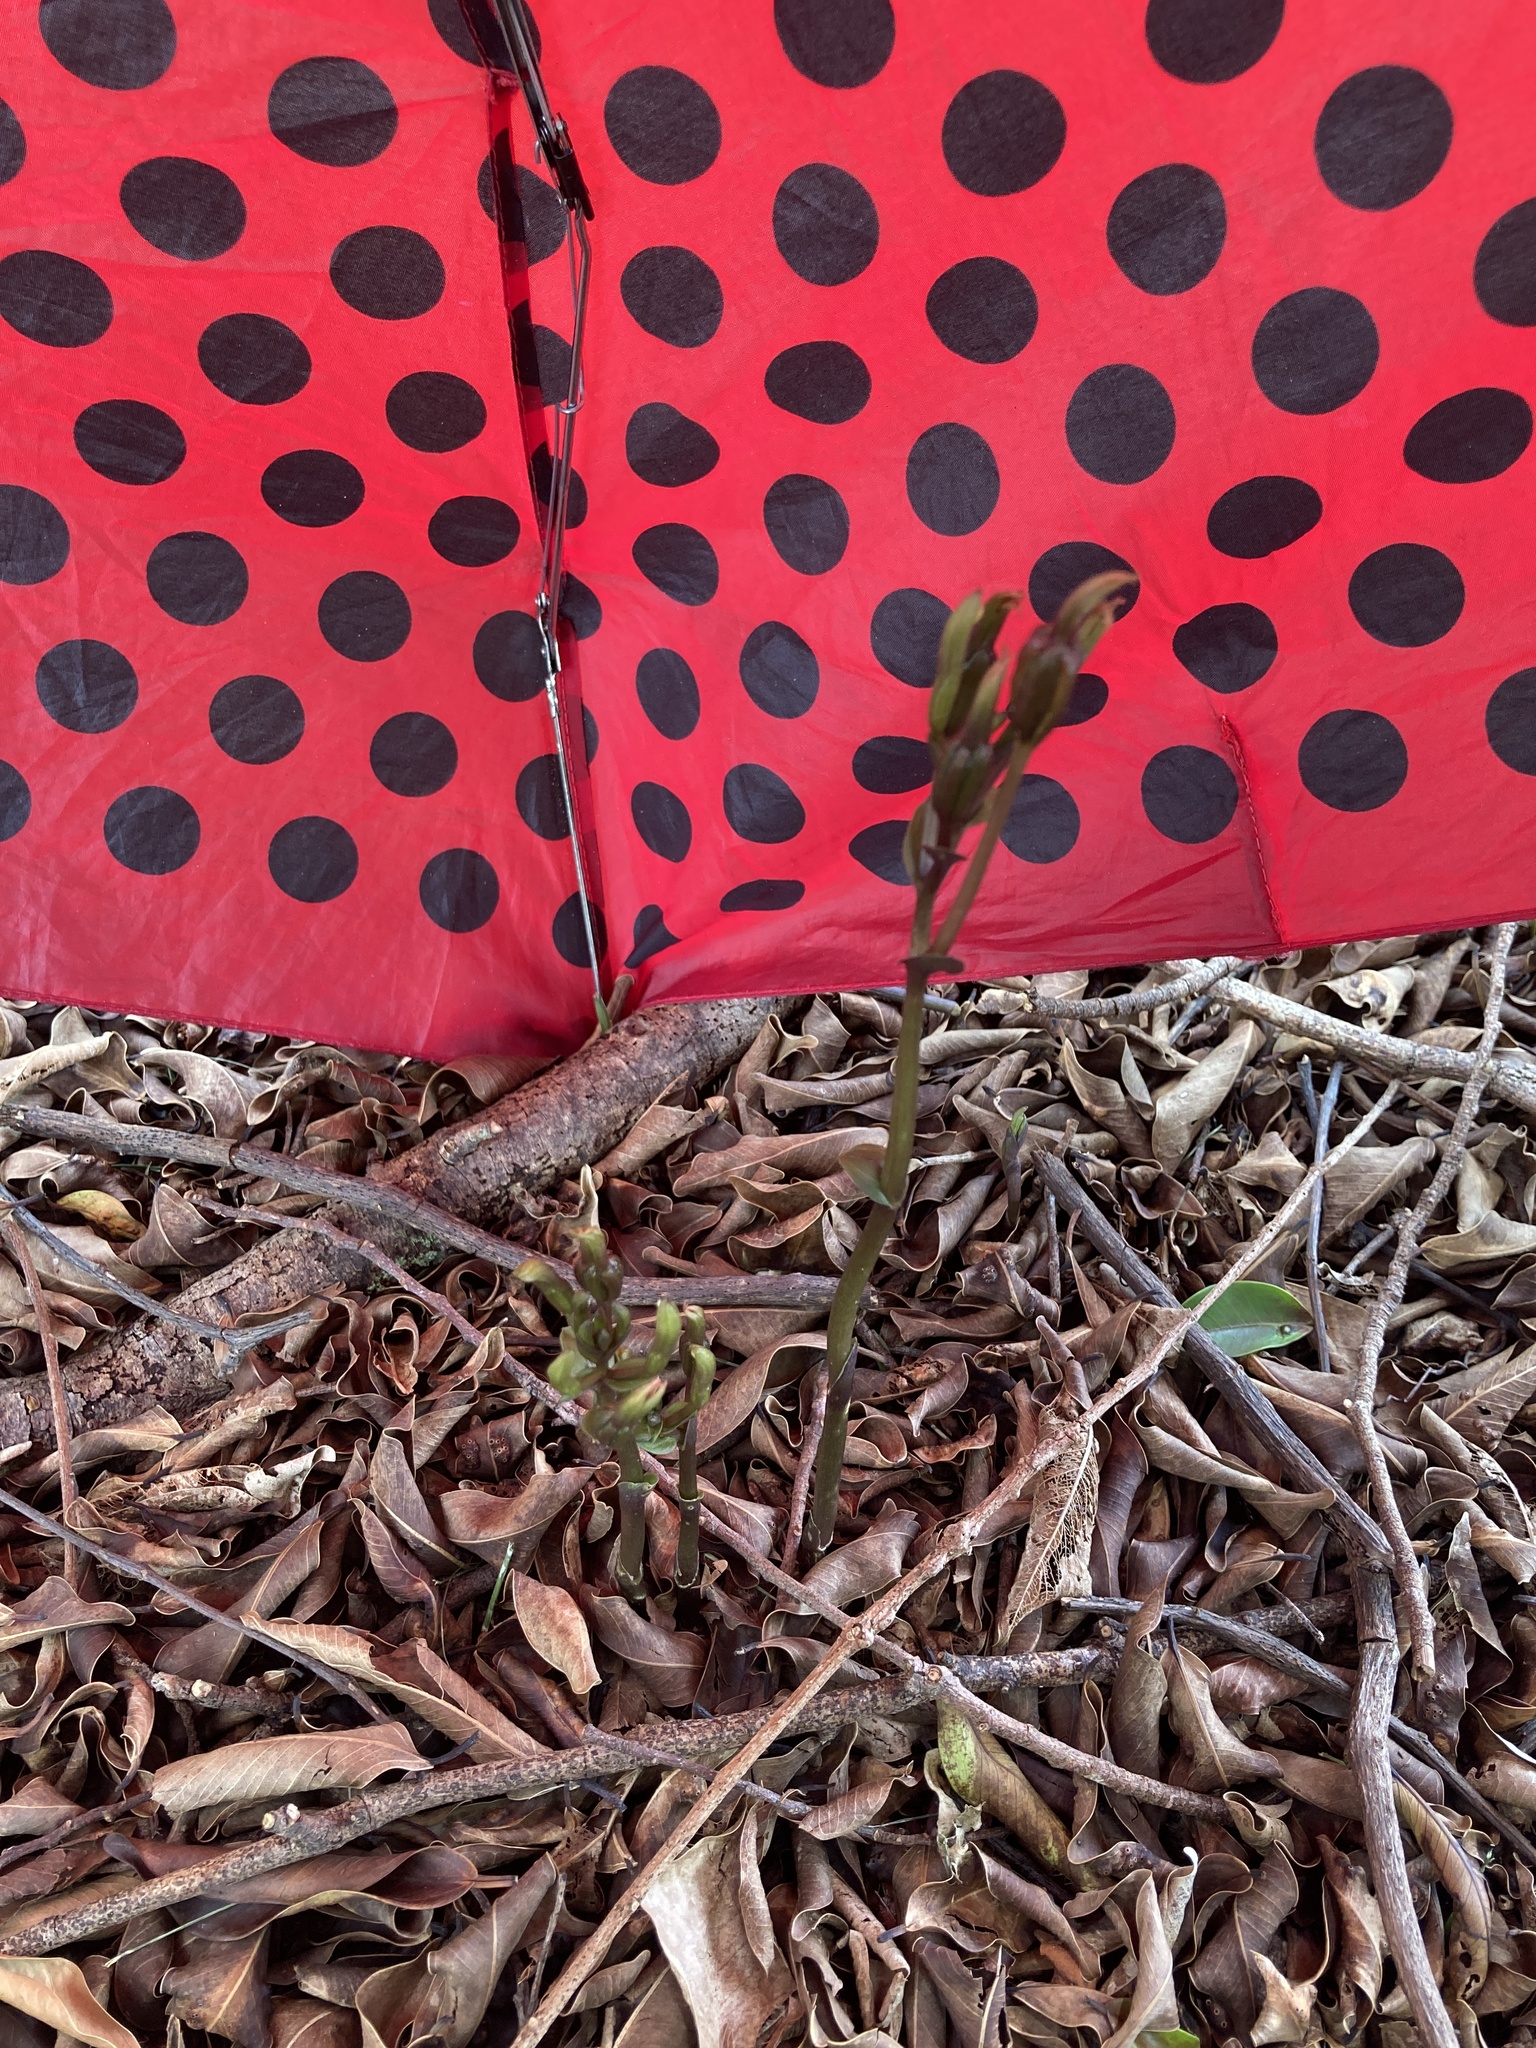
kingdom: Plantae
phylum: Tracheophyta
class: Liliopsida
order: Asparagales
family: Orchidaceae
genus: Triphora
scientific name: Triphora gentianoides
